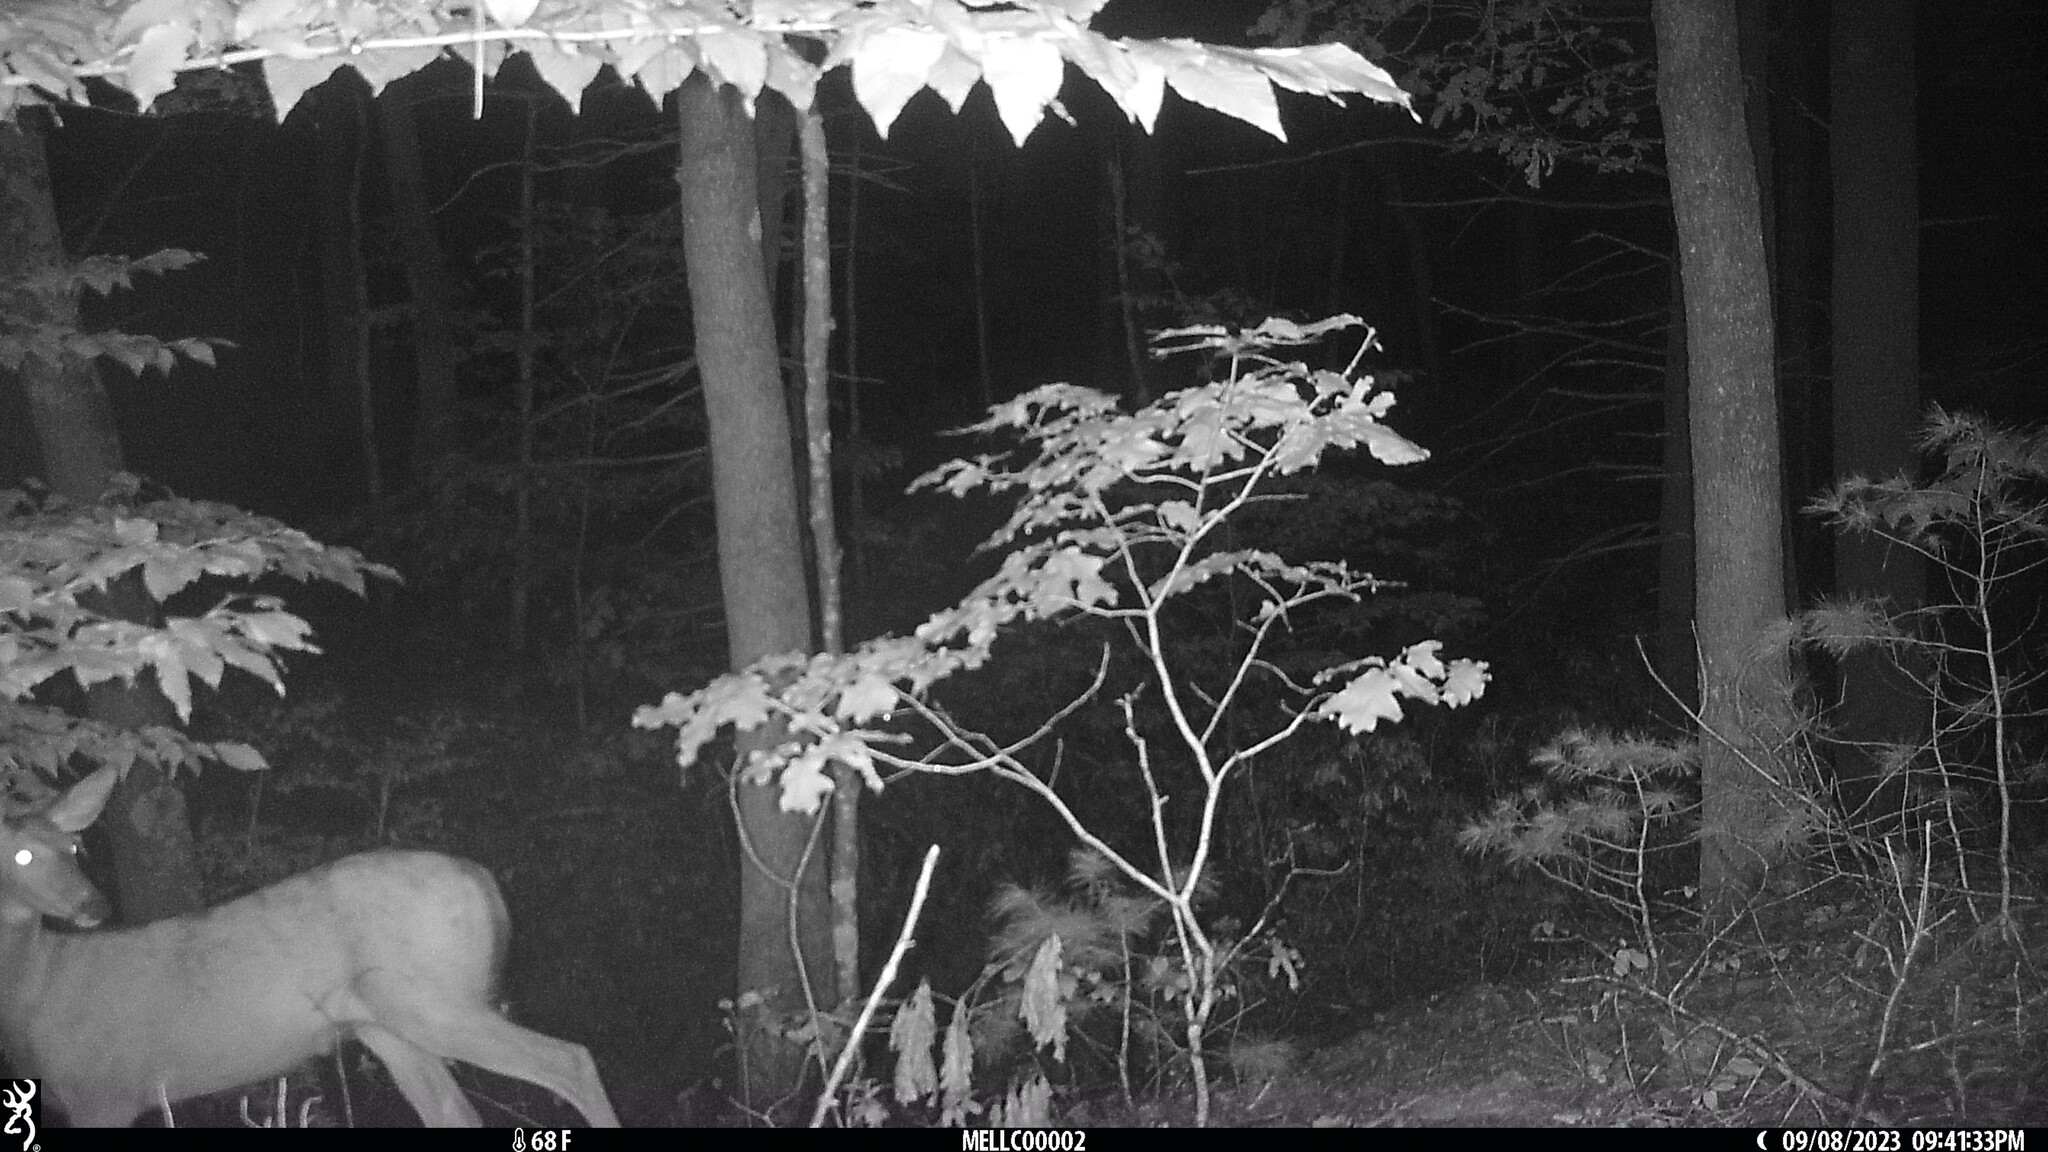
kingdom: Animalia
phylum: Chordata
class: Mammalia
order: Artiodactyla
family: Cervidae
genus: Odocoileus
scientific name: Odocoileus virginianus
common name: White-tailed deer
